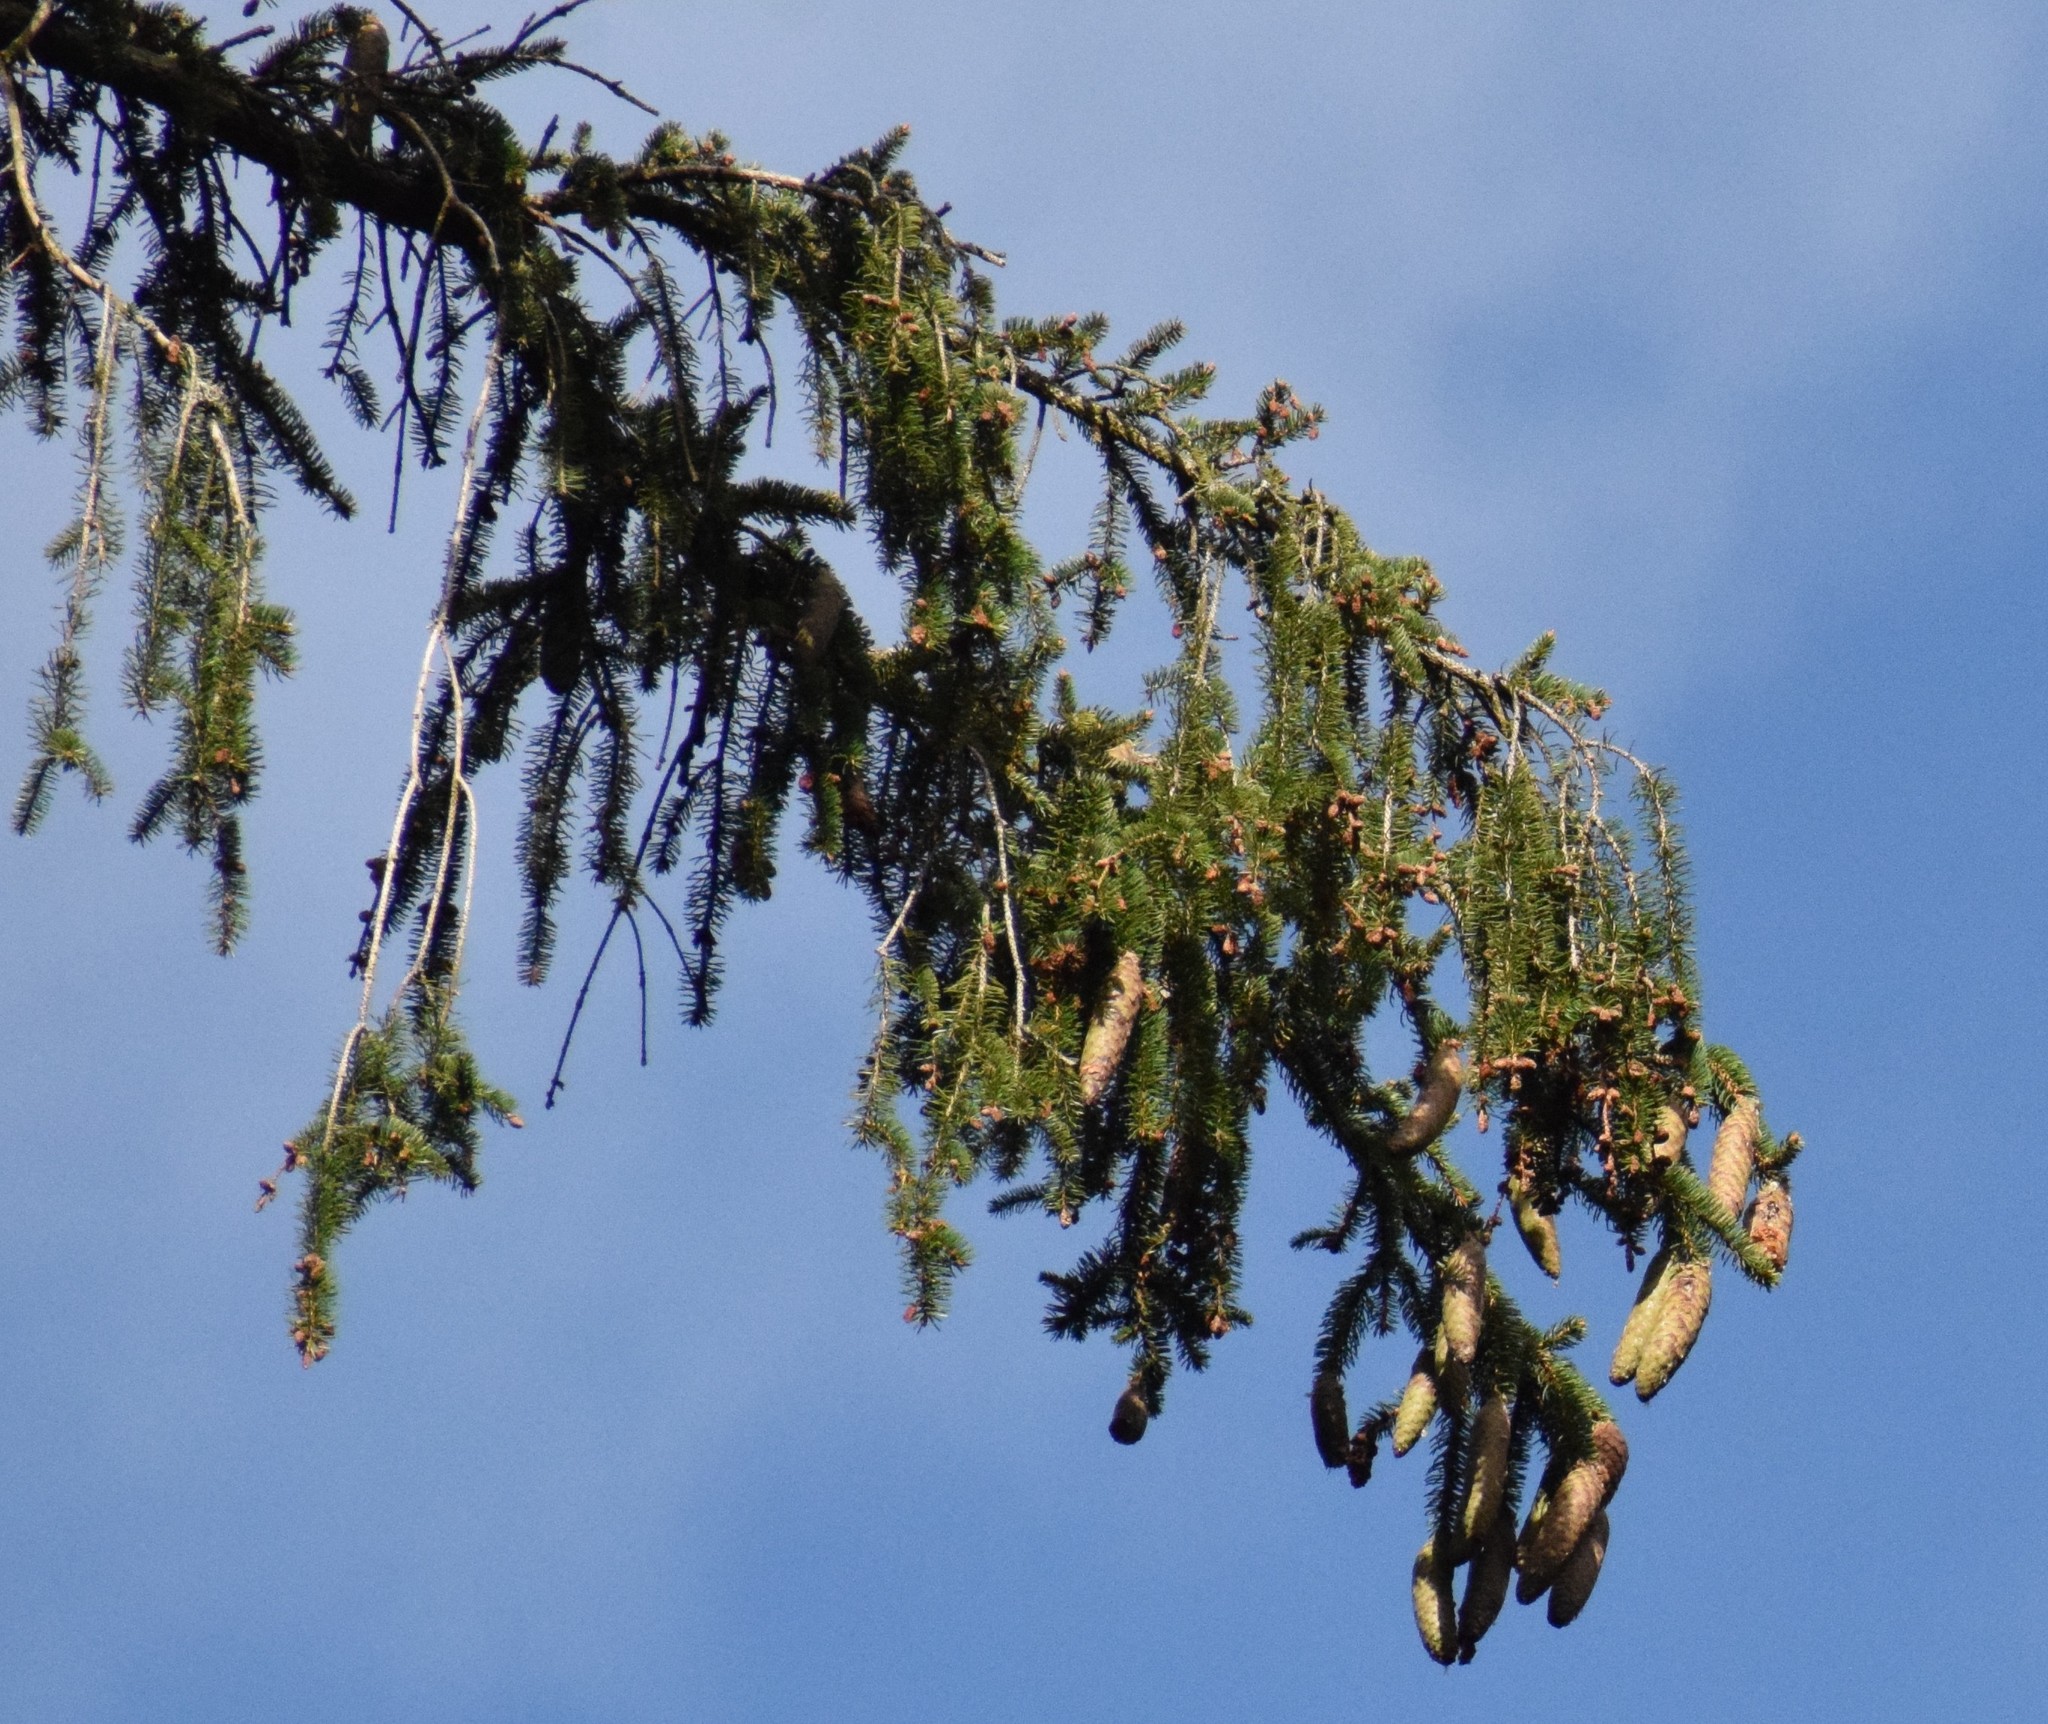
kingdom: Plantae
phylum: Tracheophyta
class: Pinopsida
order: Pinales
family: Pinaceae
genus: Picea
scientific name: Picea abies
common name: Norway spruce
